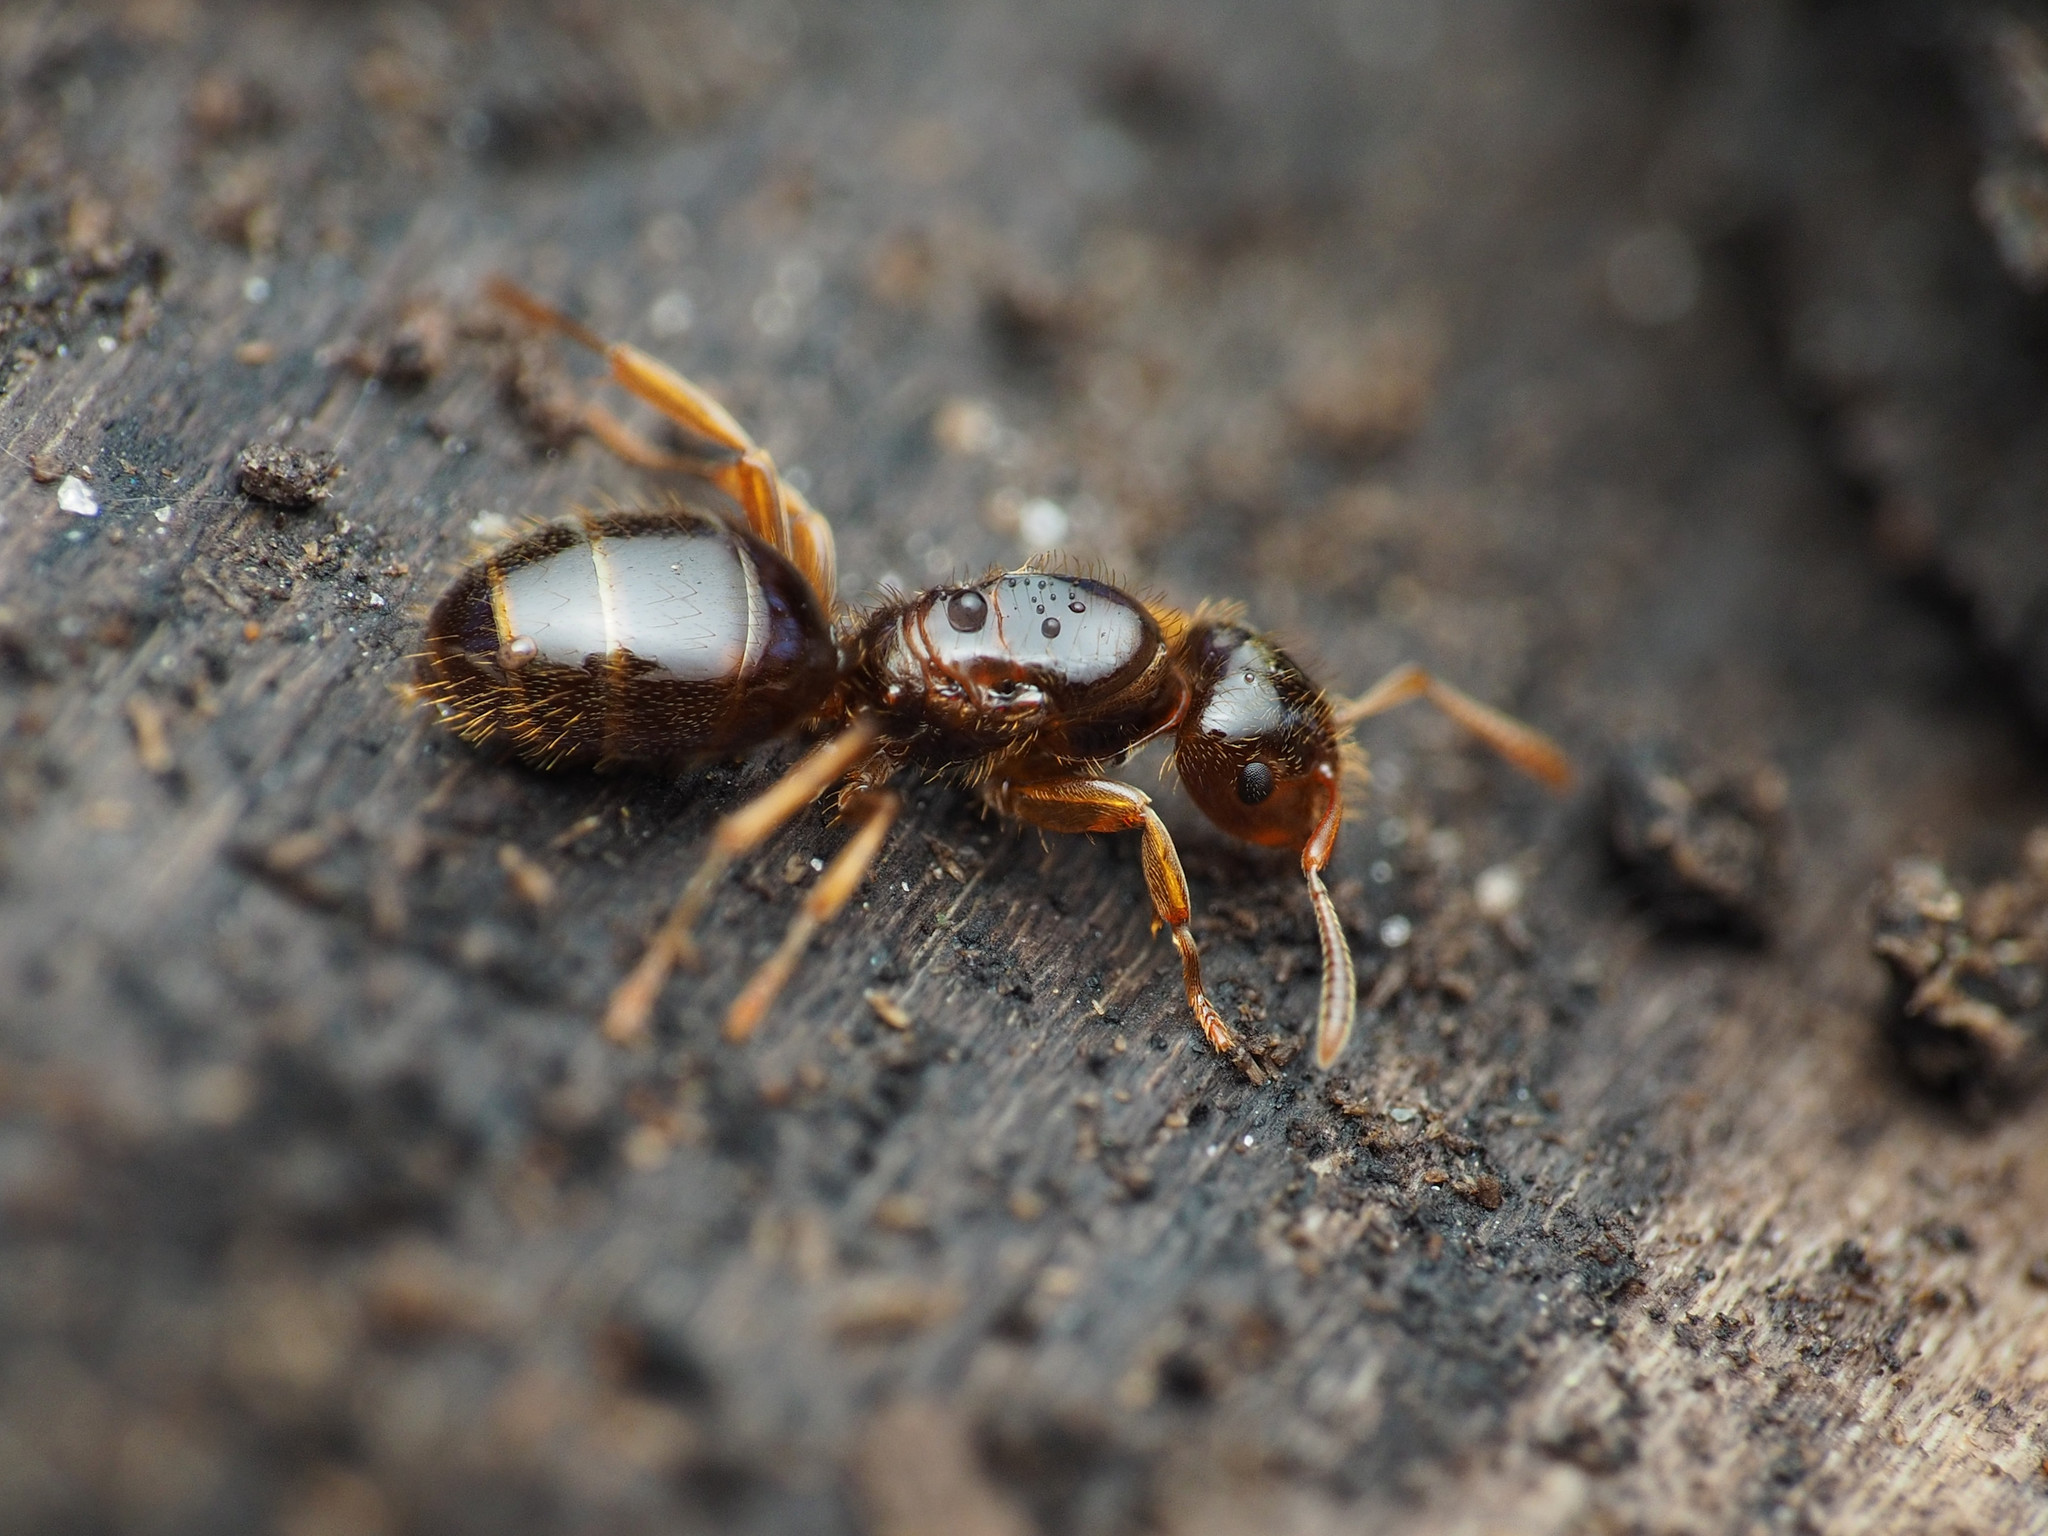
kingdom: Animalia
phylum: Arthropoda
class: Insecta
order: Hymenoptera
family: Formicidae
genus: Lasius
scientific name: Lasius claviger
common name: Common citronella ant
